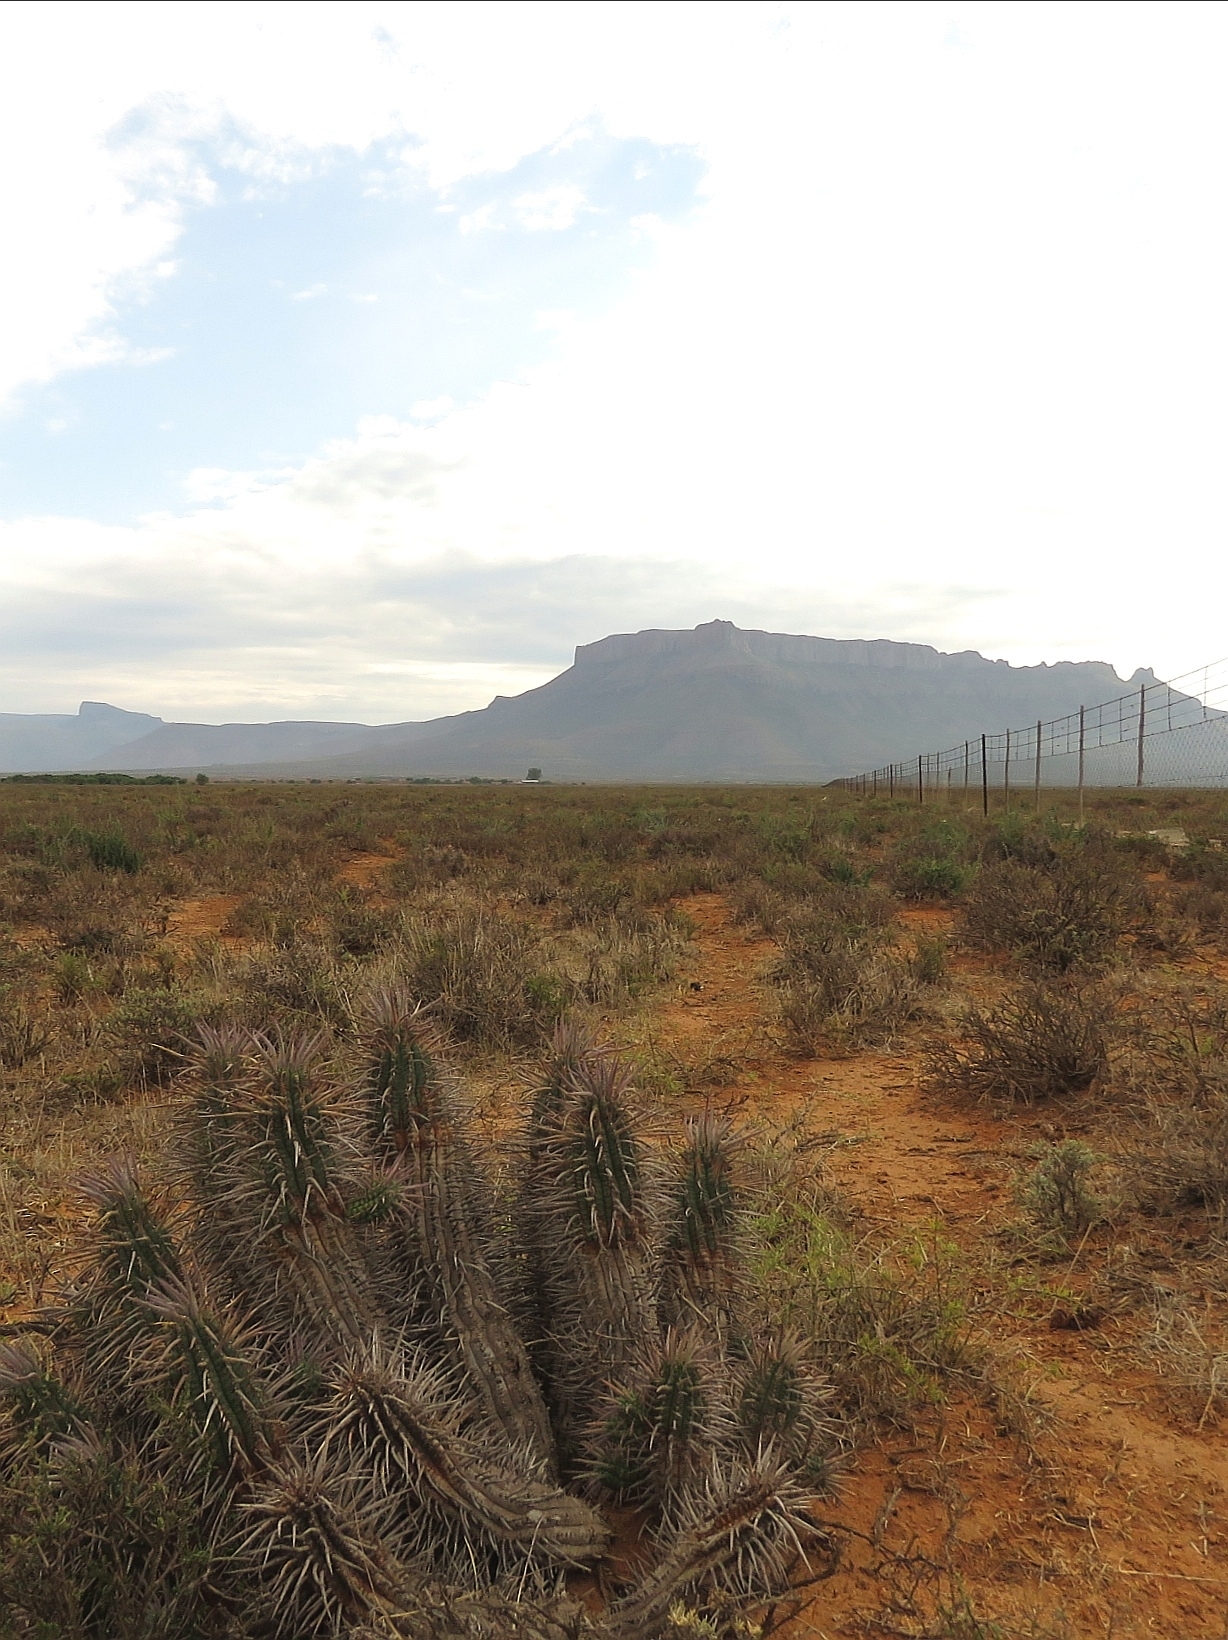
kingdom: Plantae
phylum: Tracheophyta
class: Magnoliopsida
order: Malpighiales
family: Euphorbiaceae
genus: Euphorbia
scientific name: Euphorbia ferox
